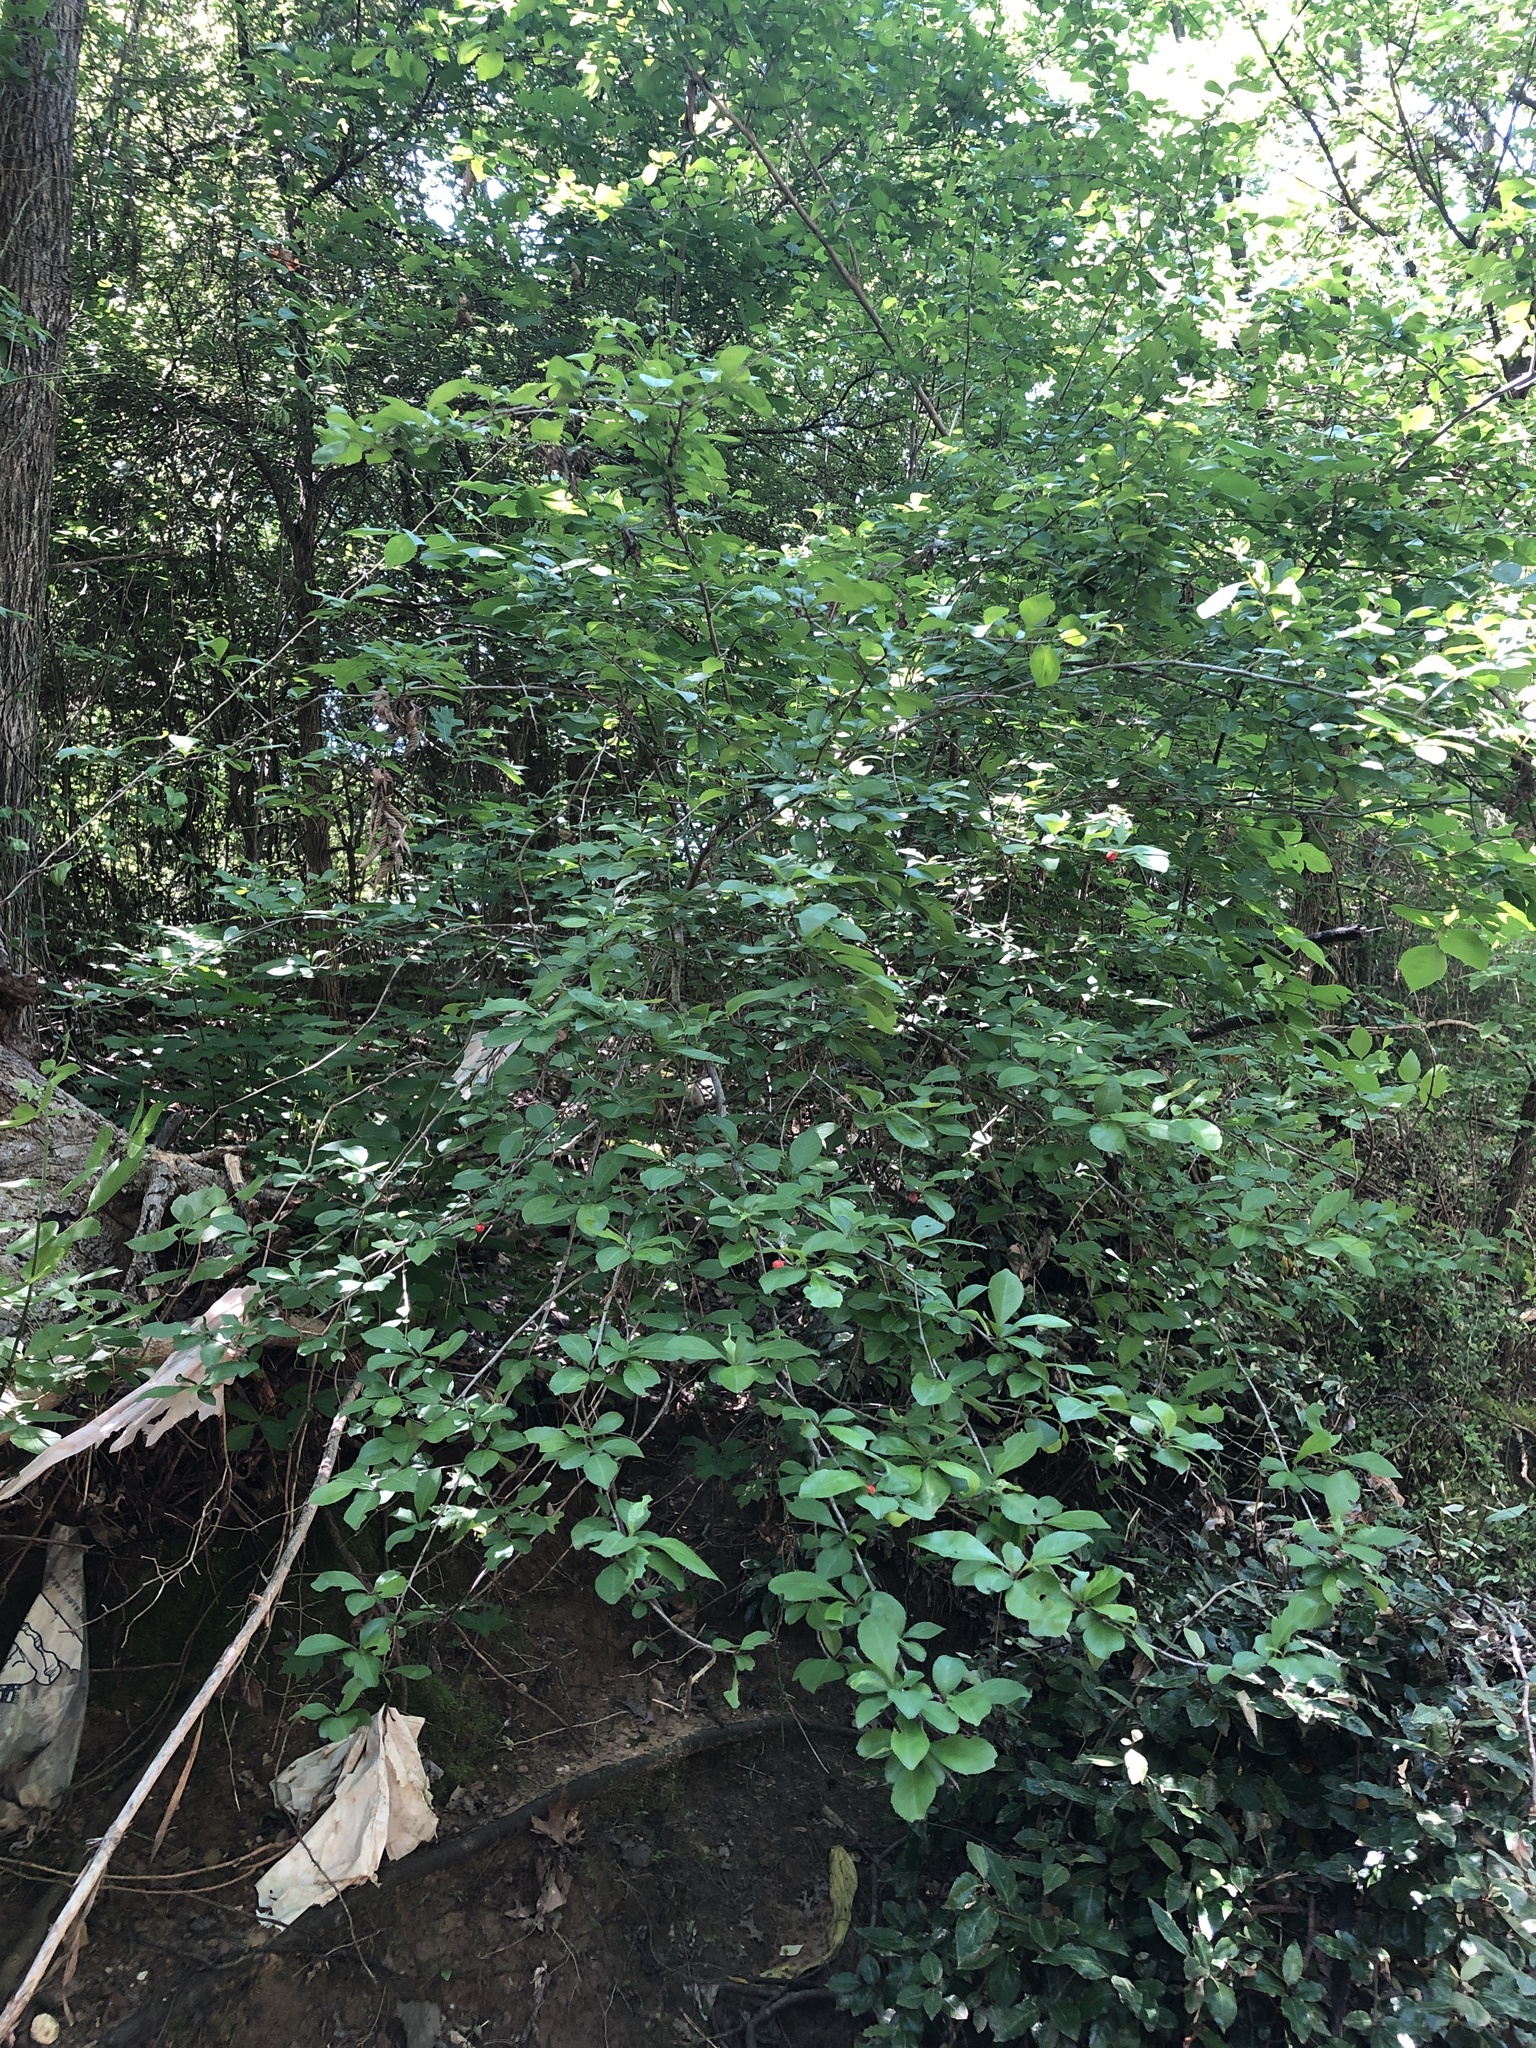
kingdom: Plantae
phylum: Tracheophyta
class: Magnoliopsida
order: Aquifoliales
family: Aquifoliaceae
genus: Ilex
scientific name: Ilex decidua
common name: Possum-haw
